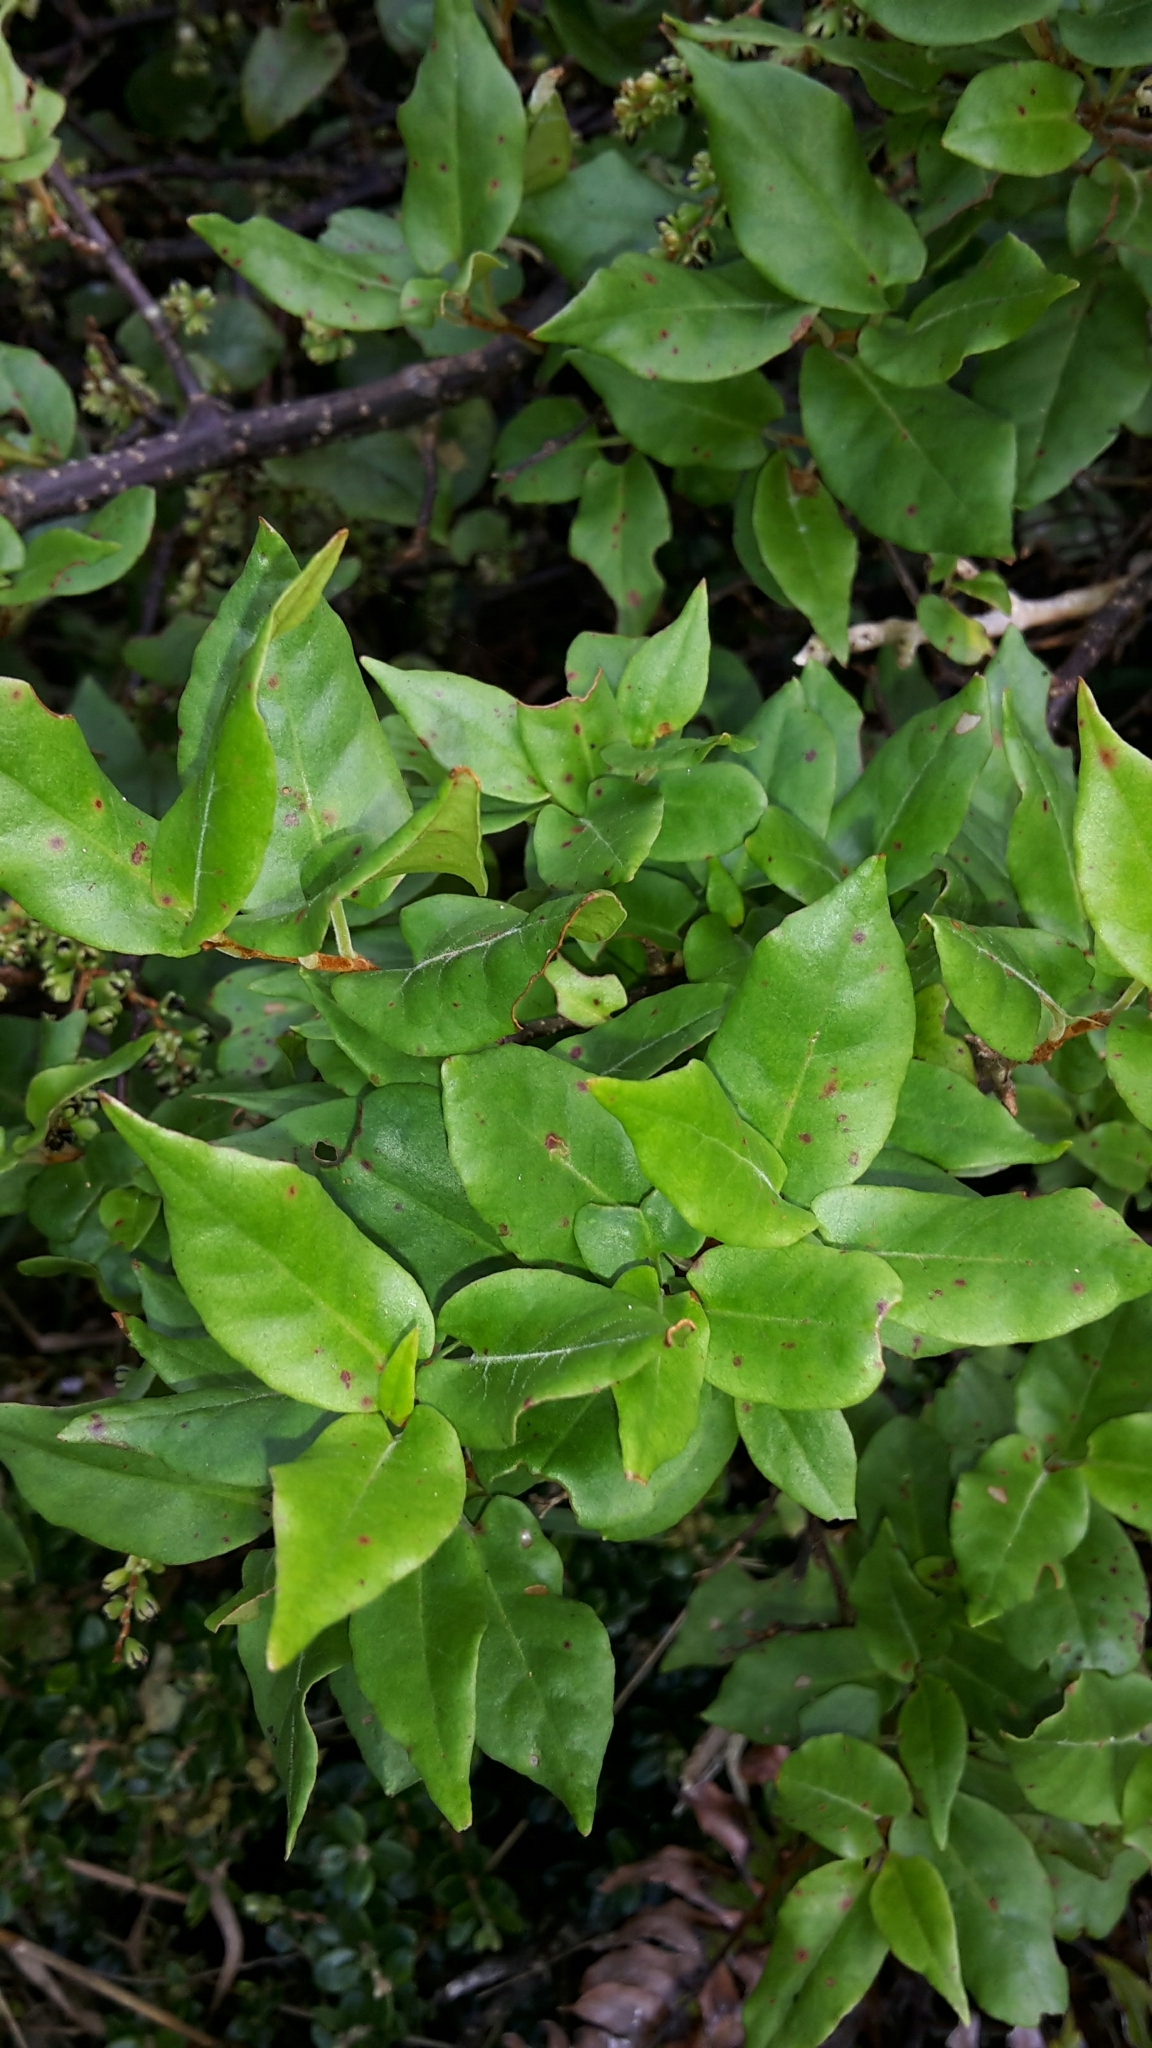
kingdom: Plantae
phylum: Tracheophyta
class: Magnoliopsida
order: Caryophyllales
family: Polygonaceae
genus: Muehlenbeckia
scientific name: Muehlenbeckia australis
